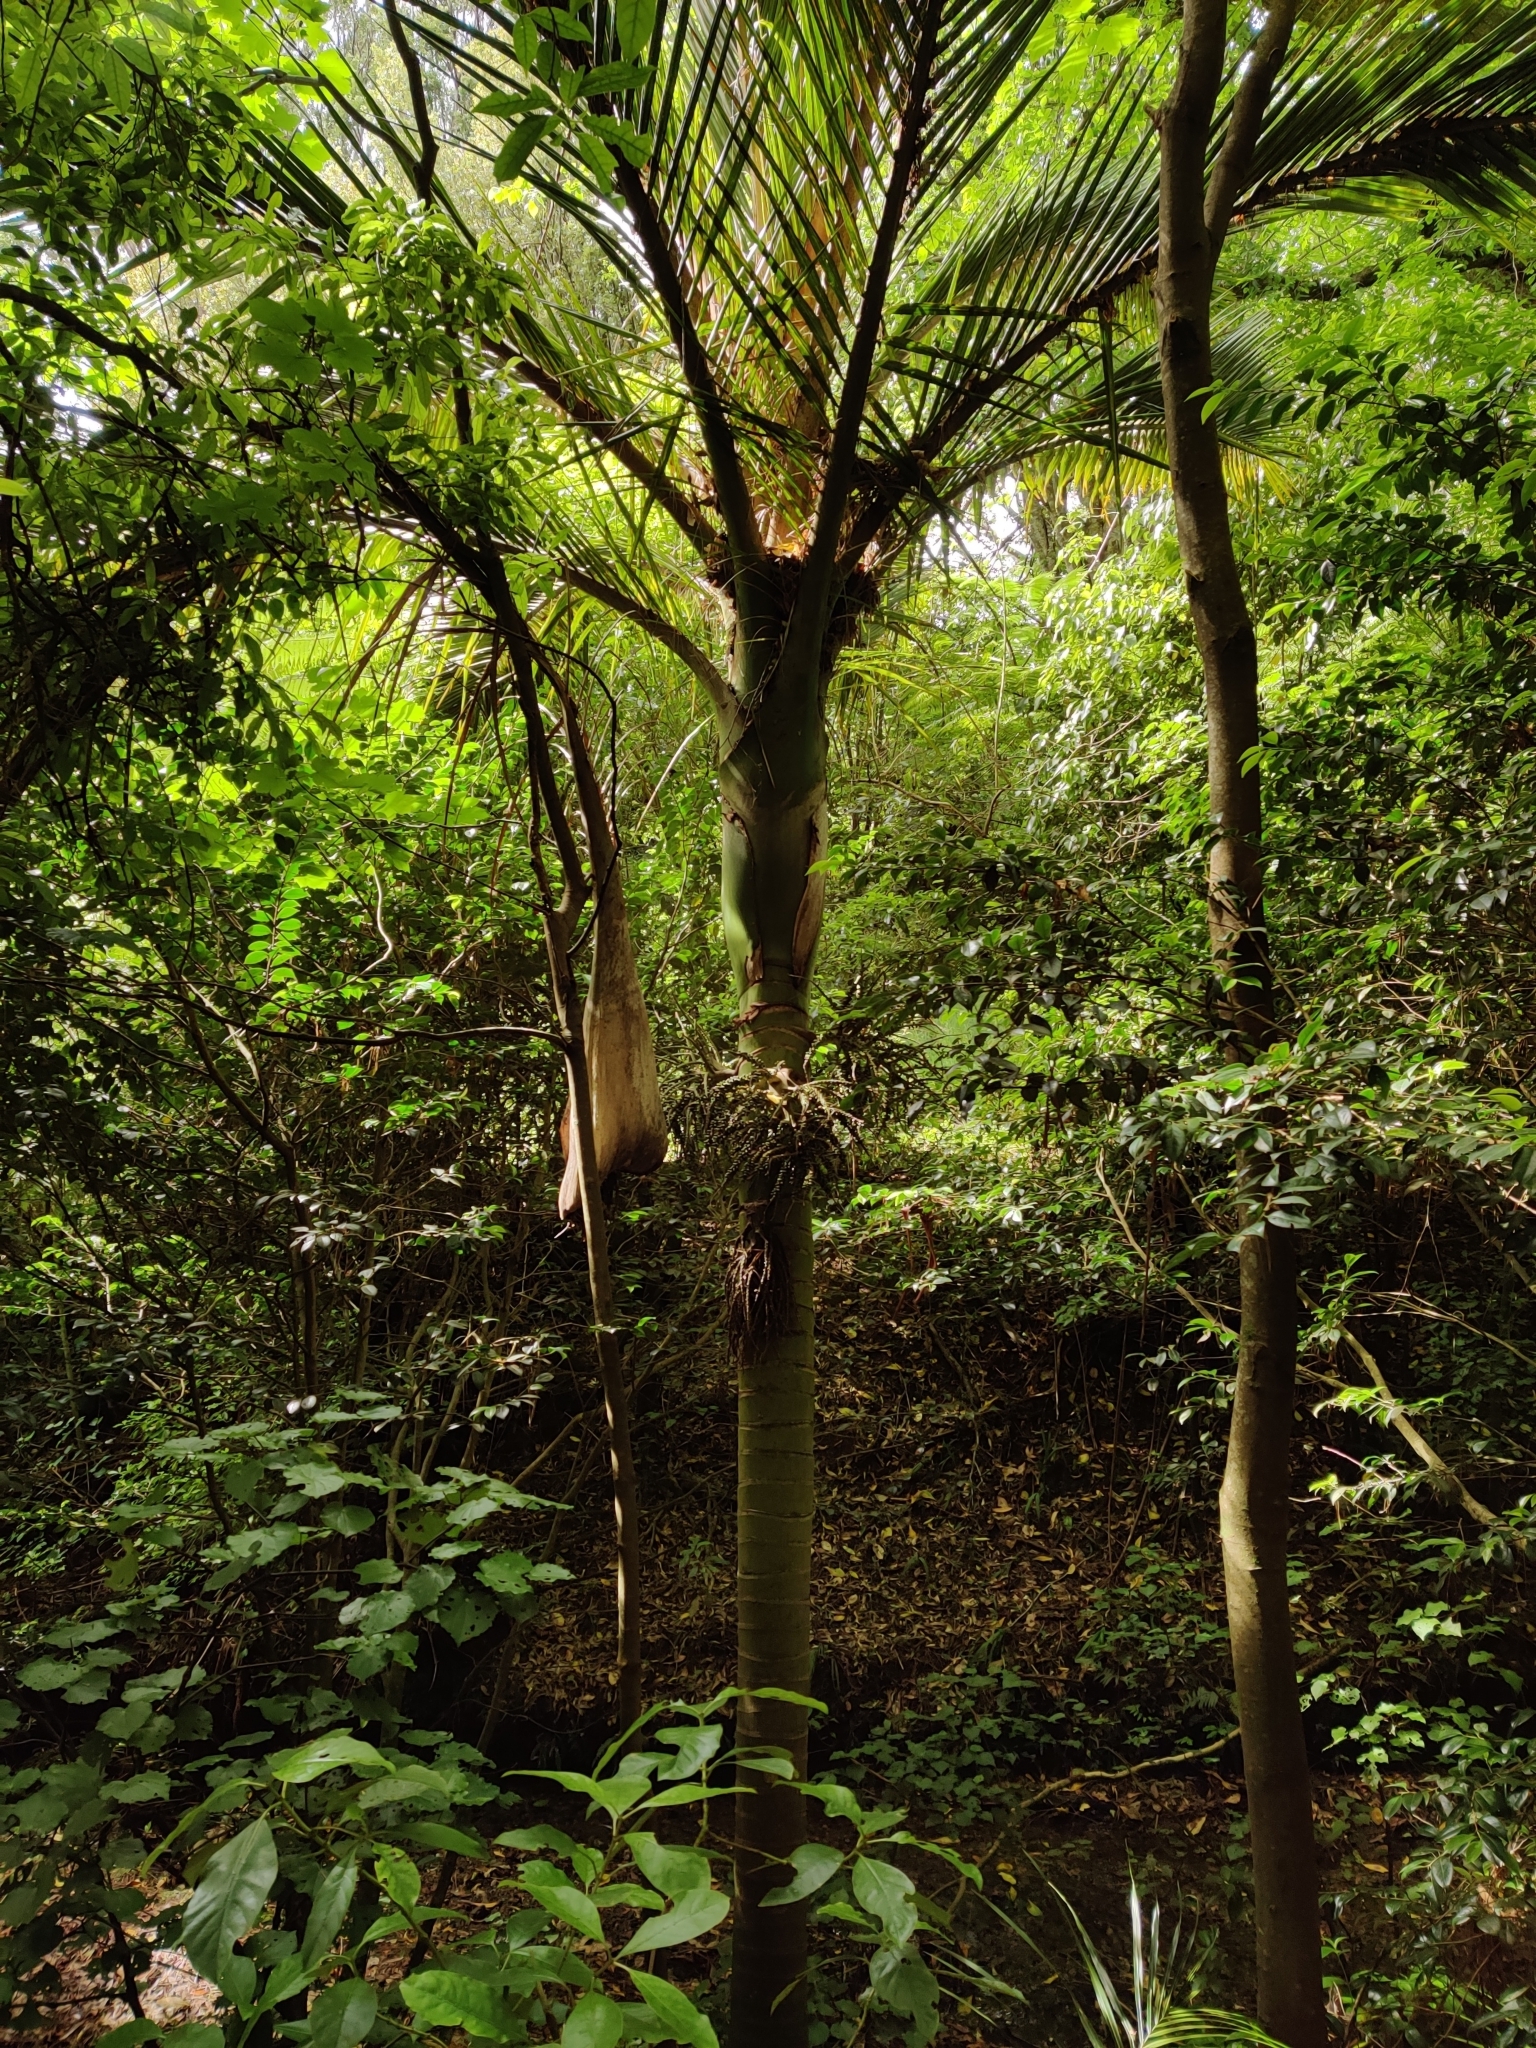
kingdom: Plantae
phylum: Tracheophyta
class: Liliopsida
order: Arecales
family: Arecaceae
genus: Rhopalostylis
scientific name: Rhopalostylis sapida
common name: Feather-duster palm
